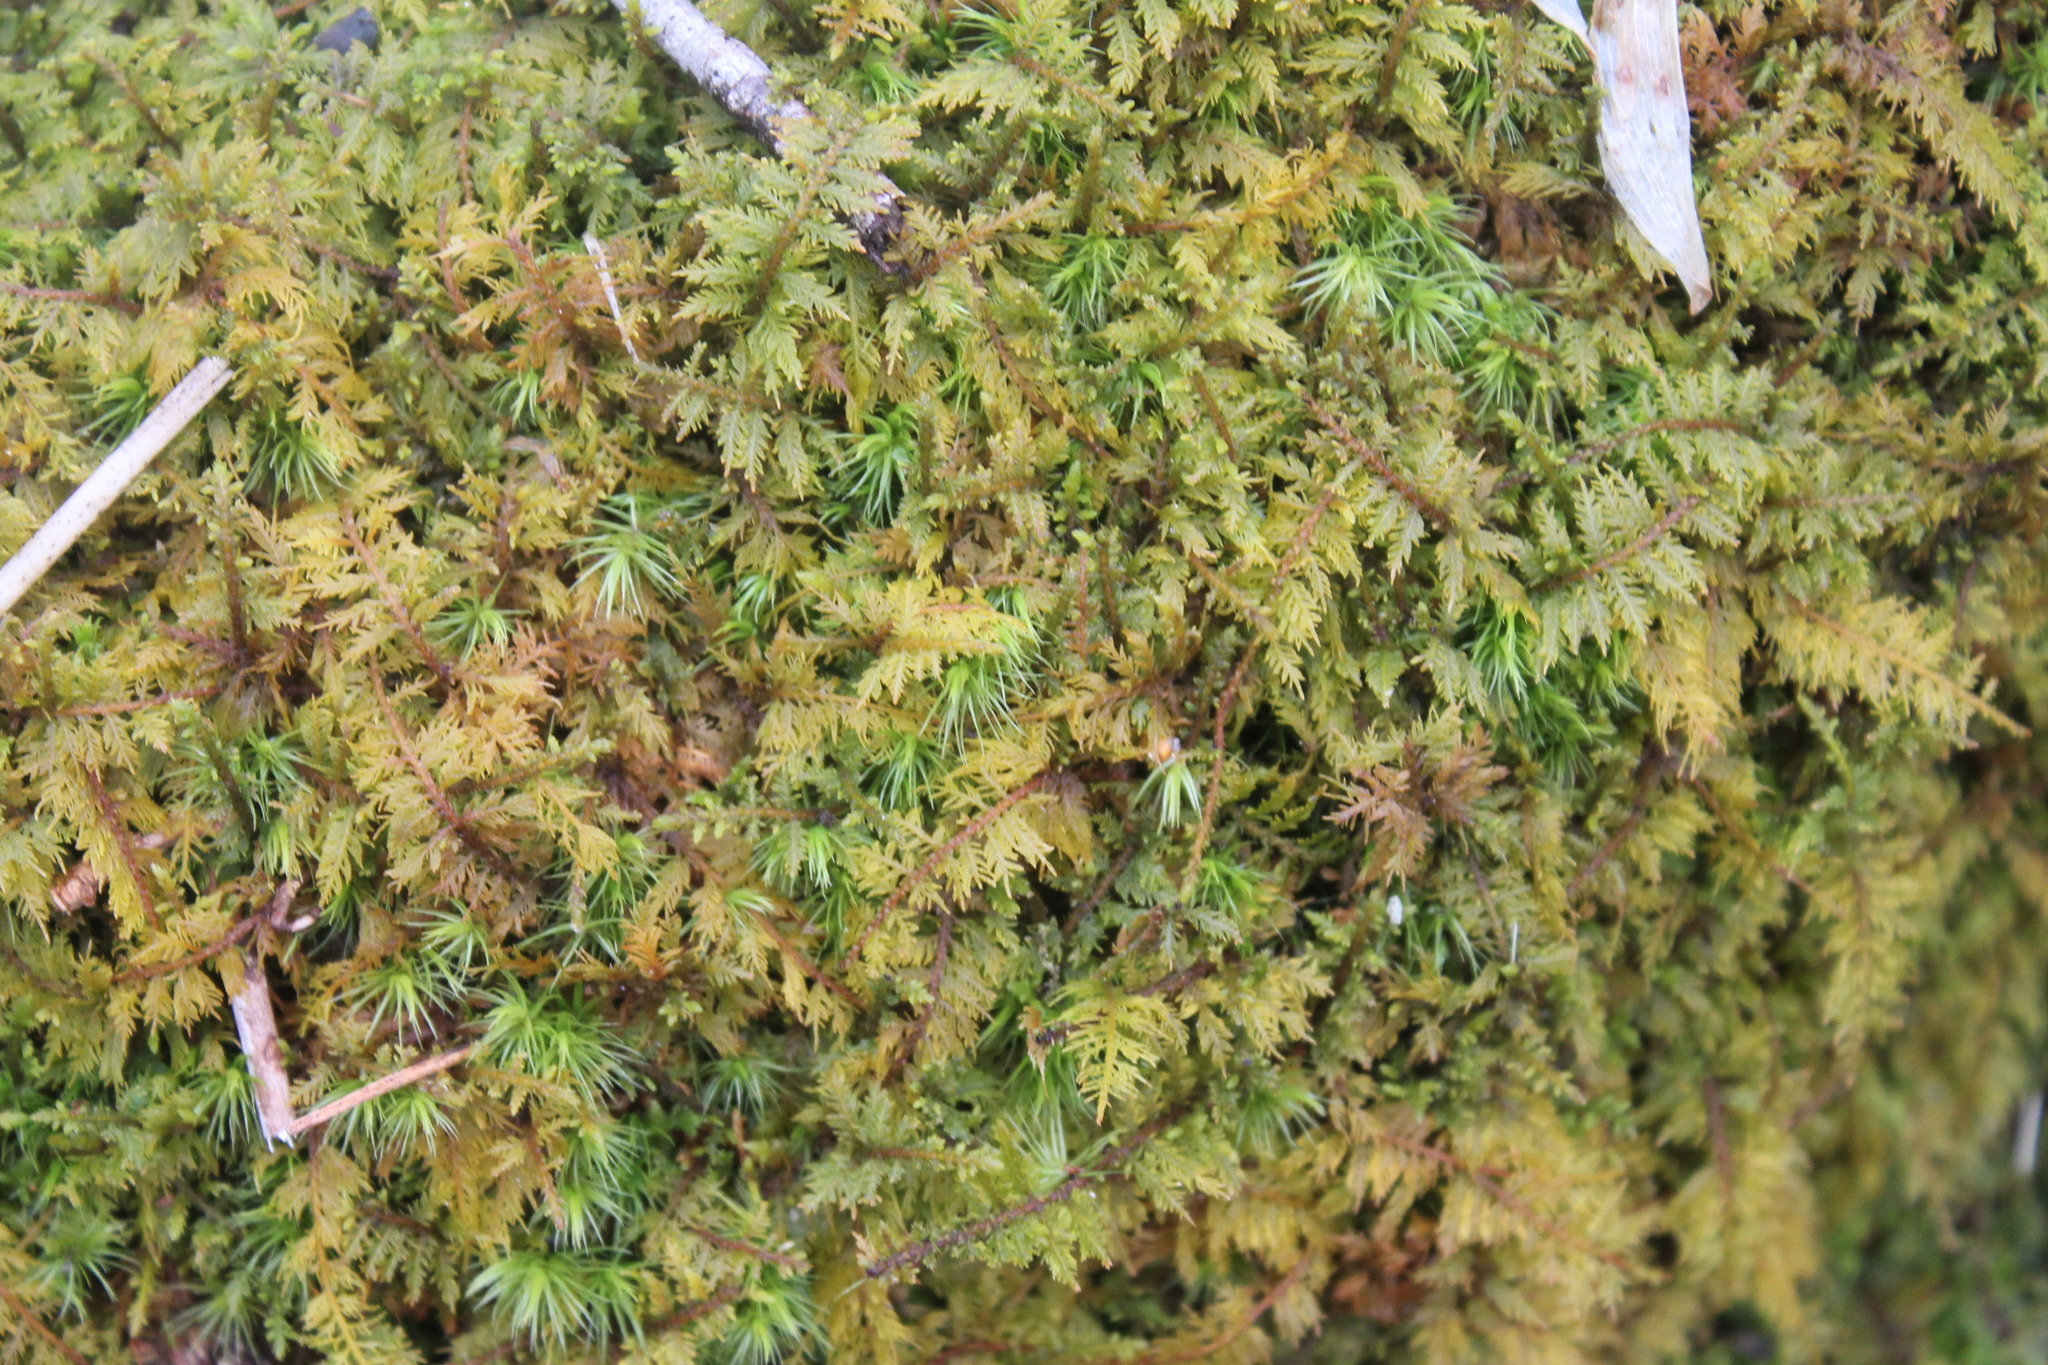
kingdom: Plantae
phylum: Bryophyta
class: Bryopsida
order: Hypnales
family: Thuidiaceae
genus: Thuidium
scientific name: Thuidium delicatulum
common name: Delicate fern moss
